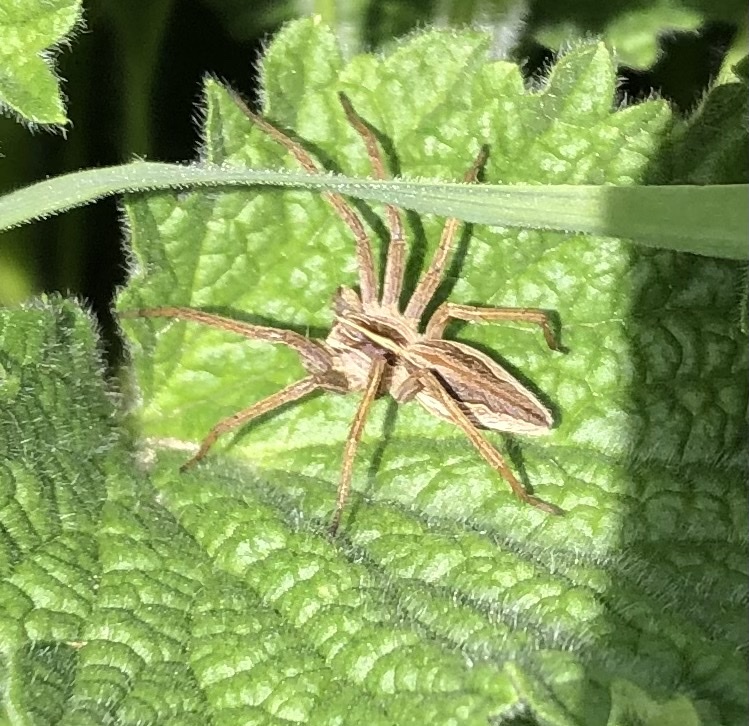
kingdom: Animalia
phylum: Arthropoda
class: Arachnida
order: Araneae
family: Pisauridae
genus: Pisaura
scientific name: Pisaura mirabilis
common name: Tent spider
